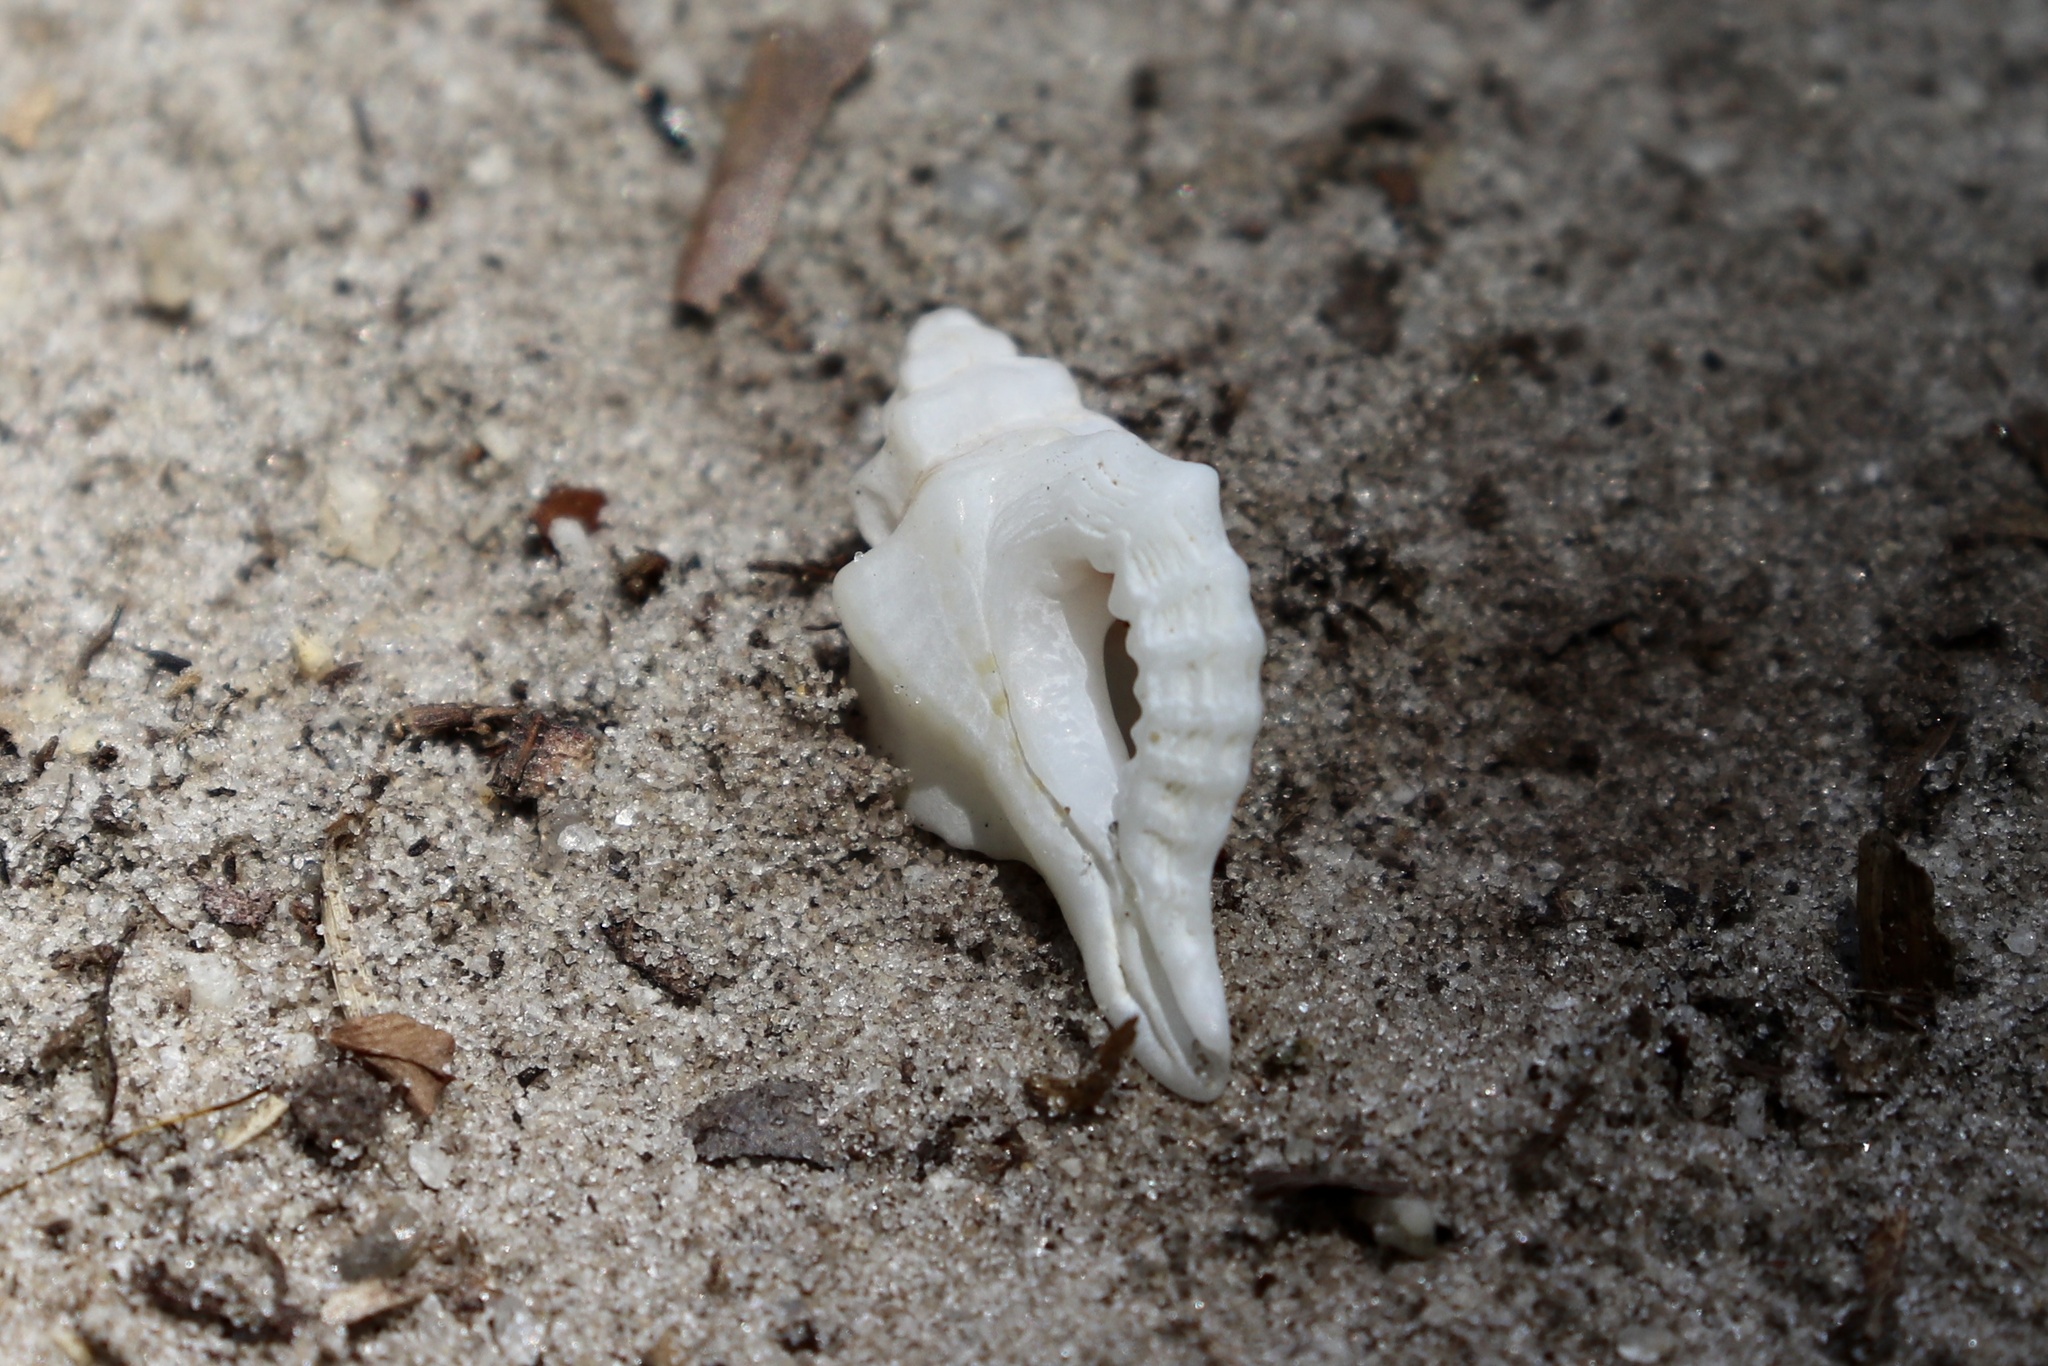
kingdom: Animalia
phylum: Mollusca
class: Gastropoda
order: Neogastropoda
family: Muricidae
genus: Eupleura
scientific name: Eupleura sulcidentata
